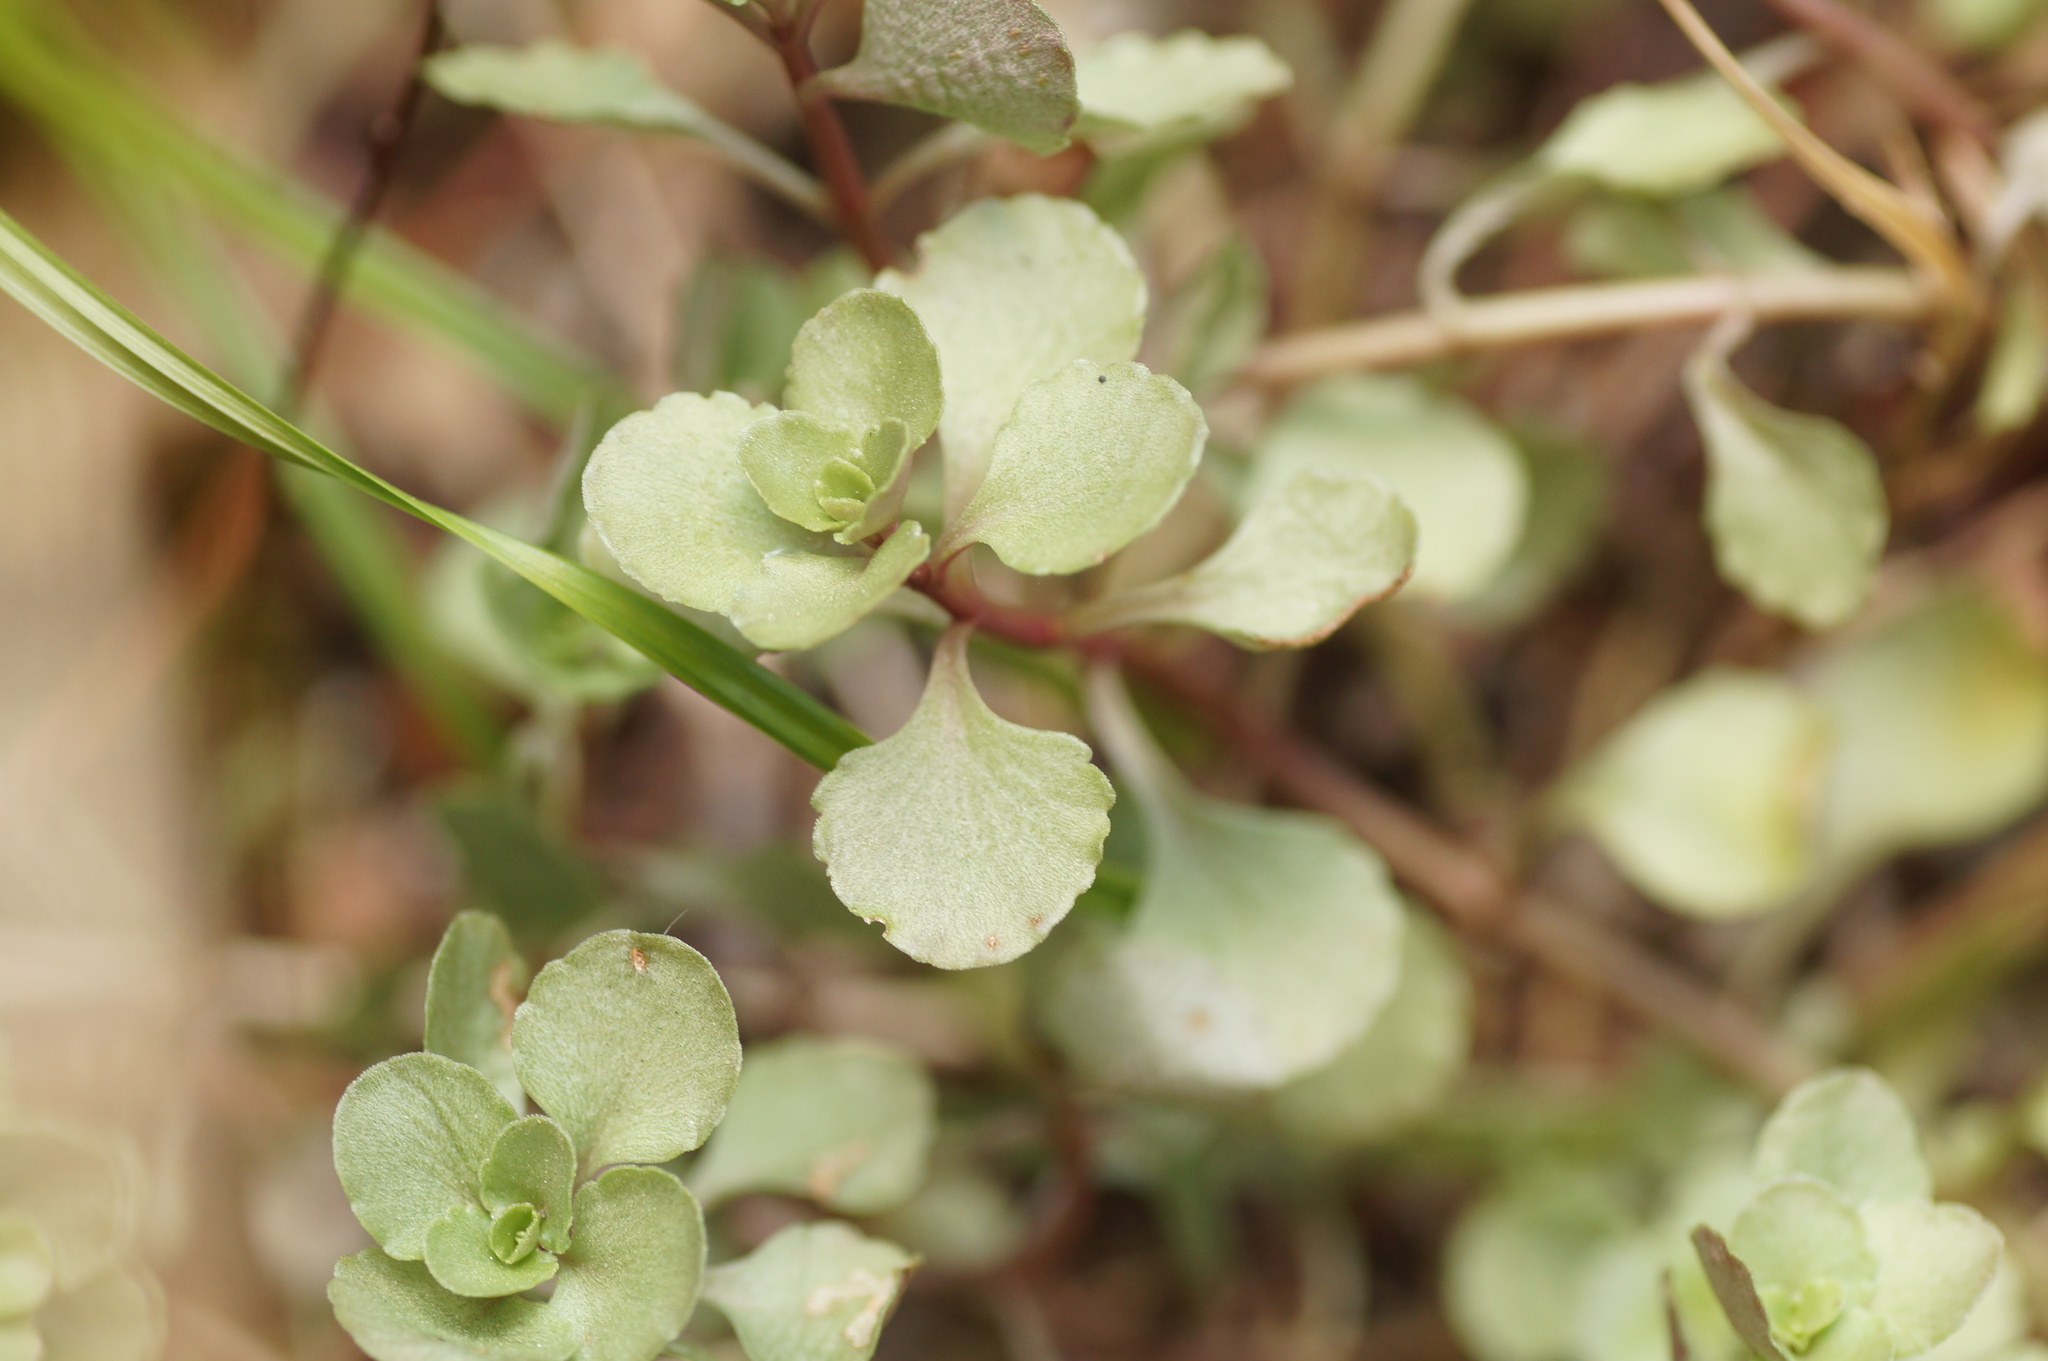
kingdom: Plantae
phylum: Tracheophyta
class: Magnoliopsida
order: Saxifragales
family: Crassulaceae
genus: Phedimus
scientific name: Phedimus stolonifer
